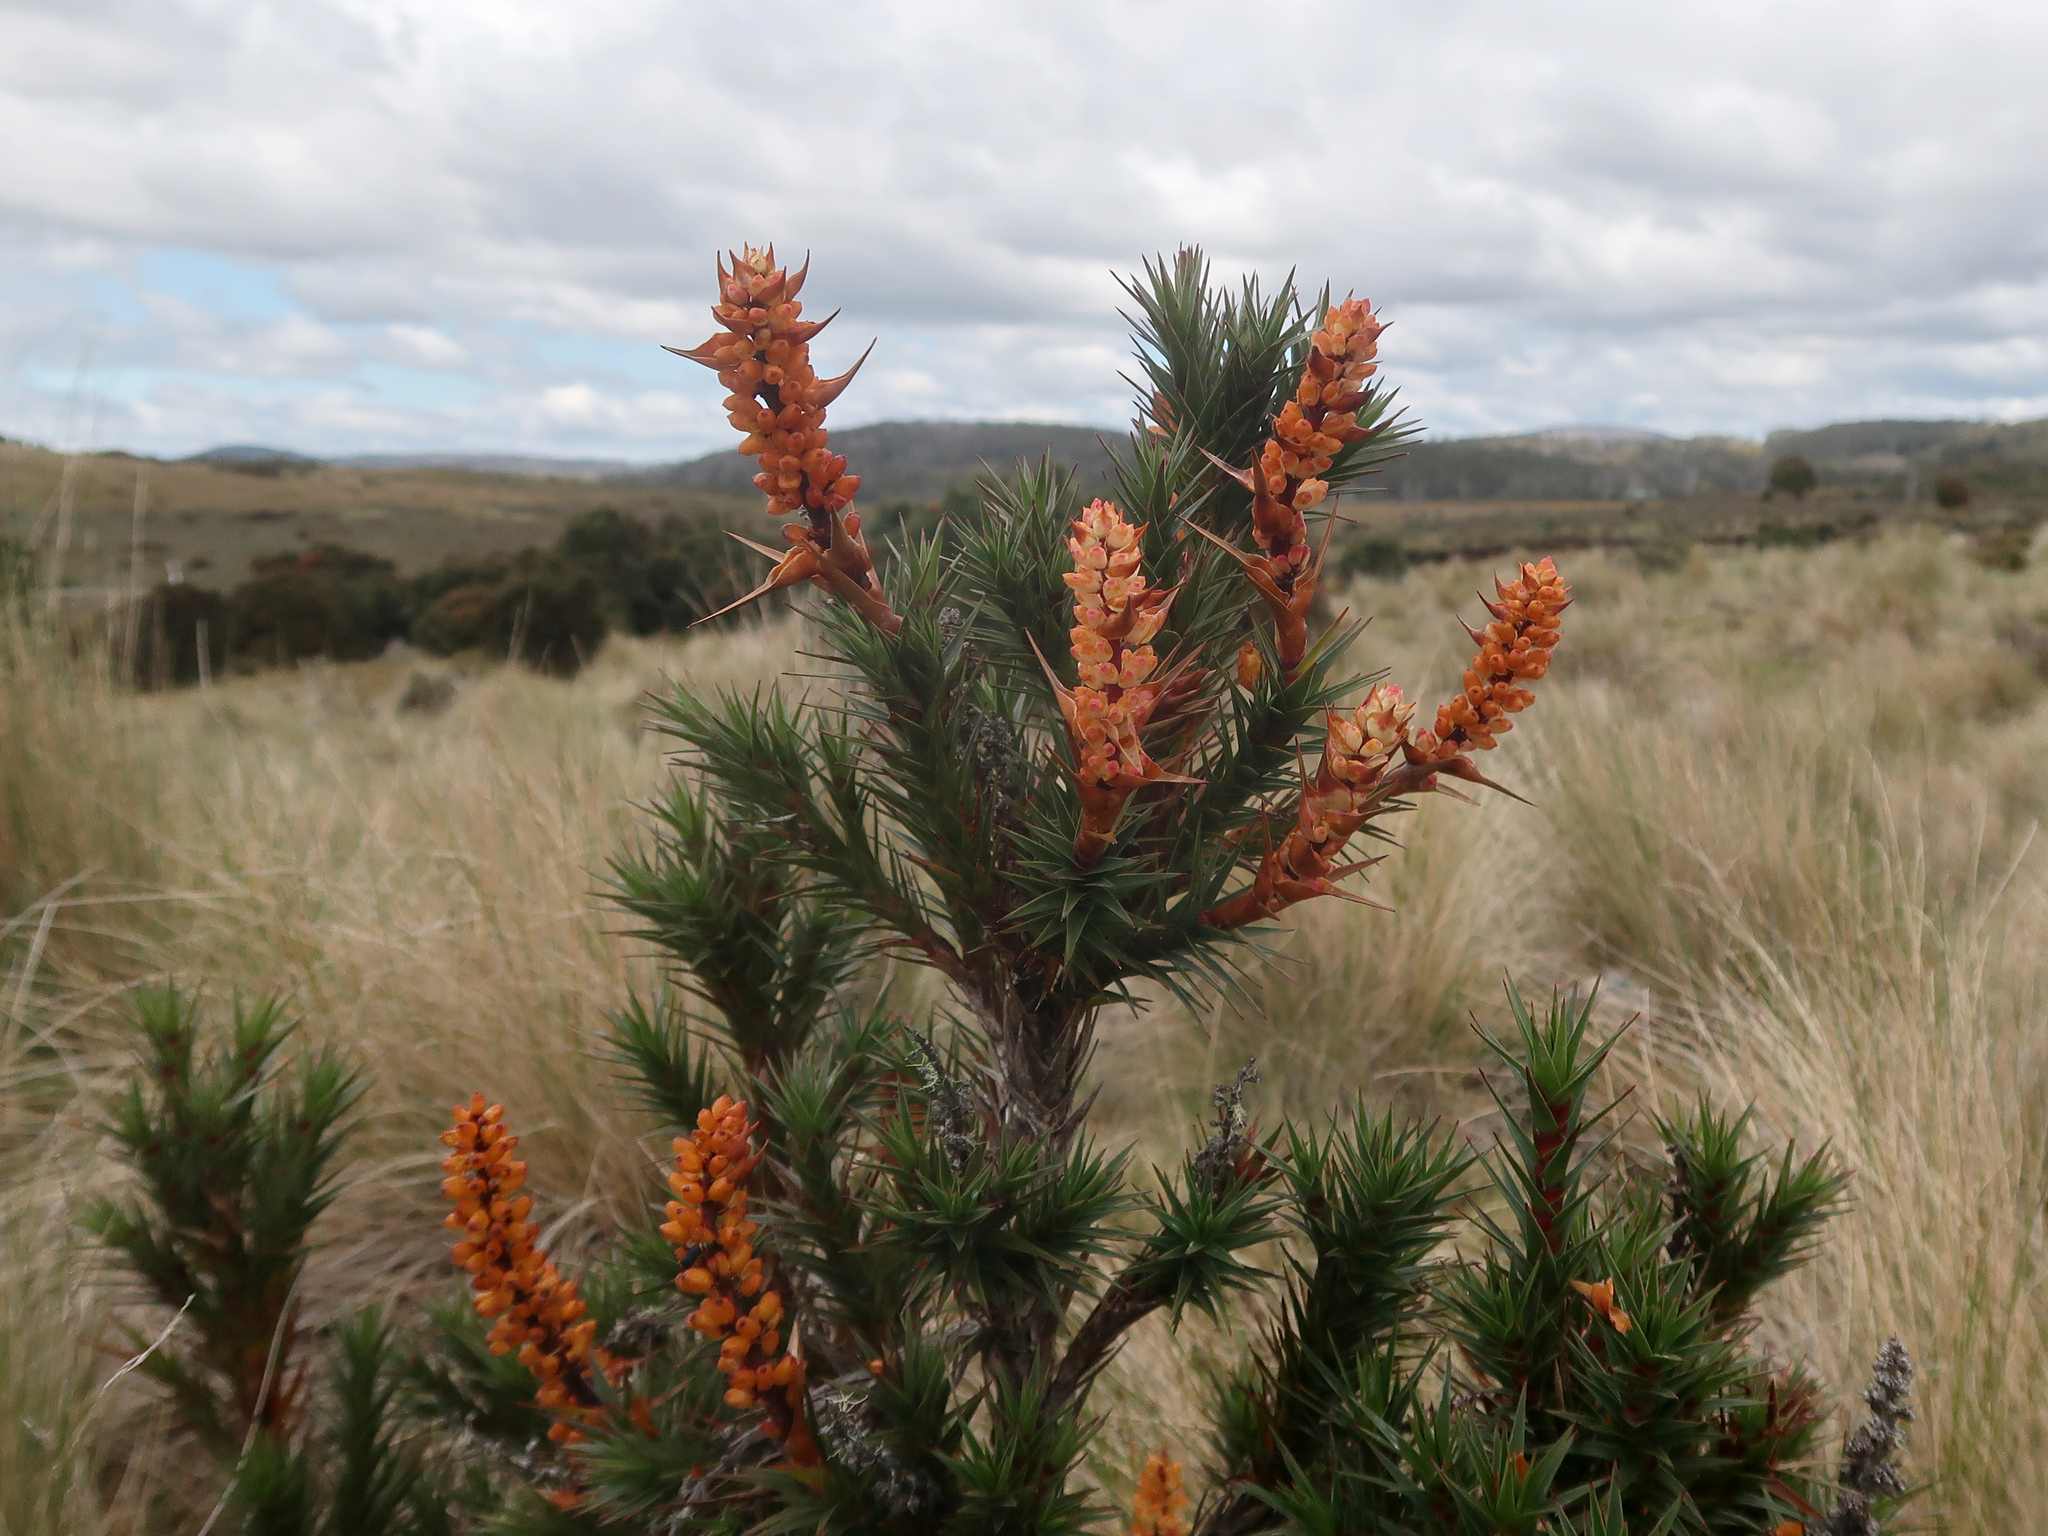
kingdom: Plantae
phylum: Tracheophyta
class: Magnoliopsida
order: Ericales
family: Ericaceae
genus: Dracophyllum
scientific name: Dracophyllum persistentifolium
